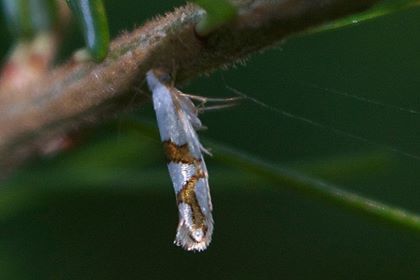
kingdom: Animalia
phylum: Arthropoda
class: Insecta
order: Lepidoptera
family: Argyresthiidae
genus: Argyresthia
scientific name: Argyresthia oreasella
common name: Cherry shoot borer moth
